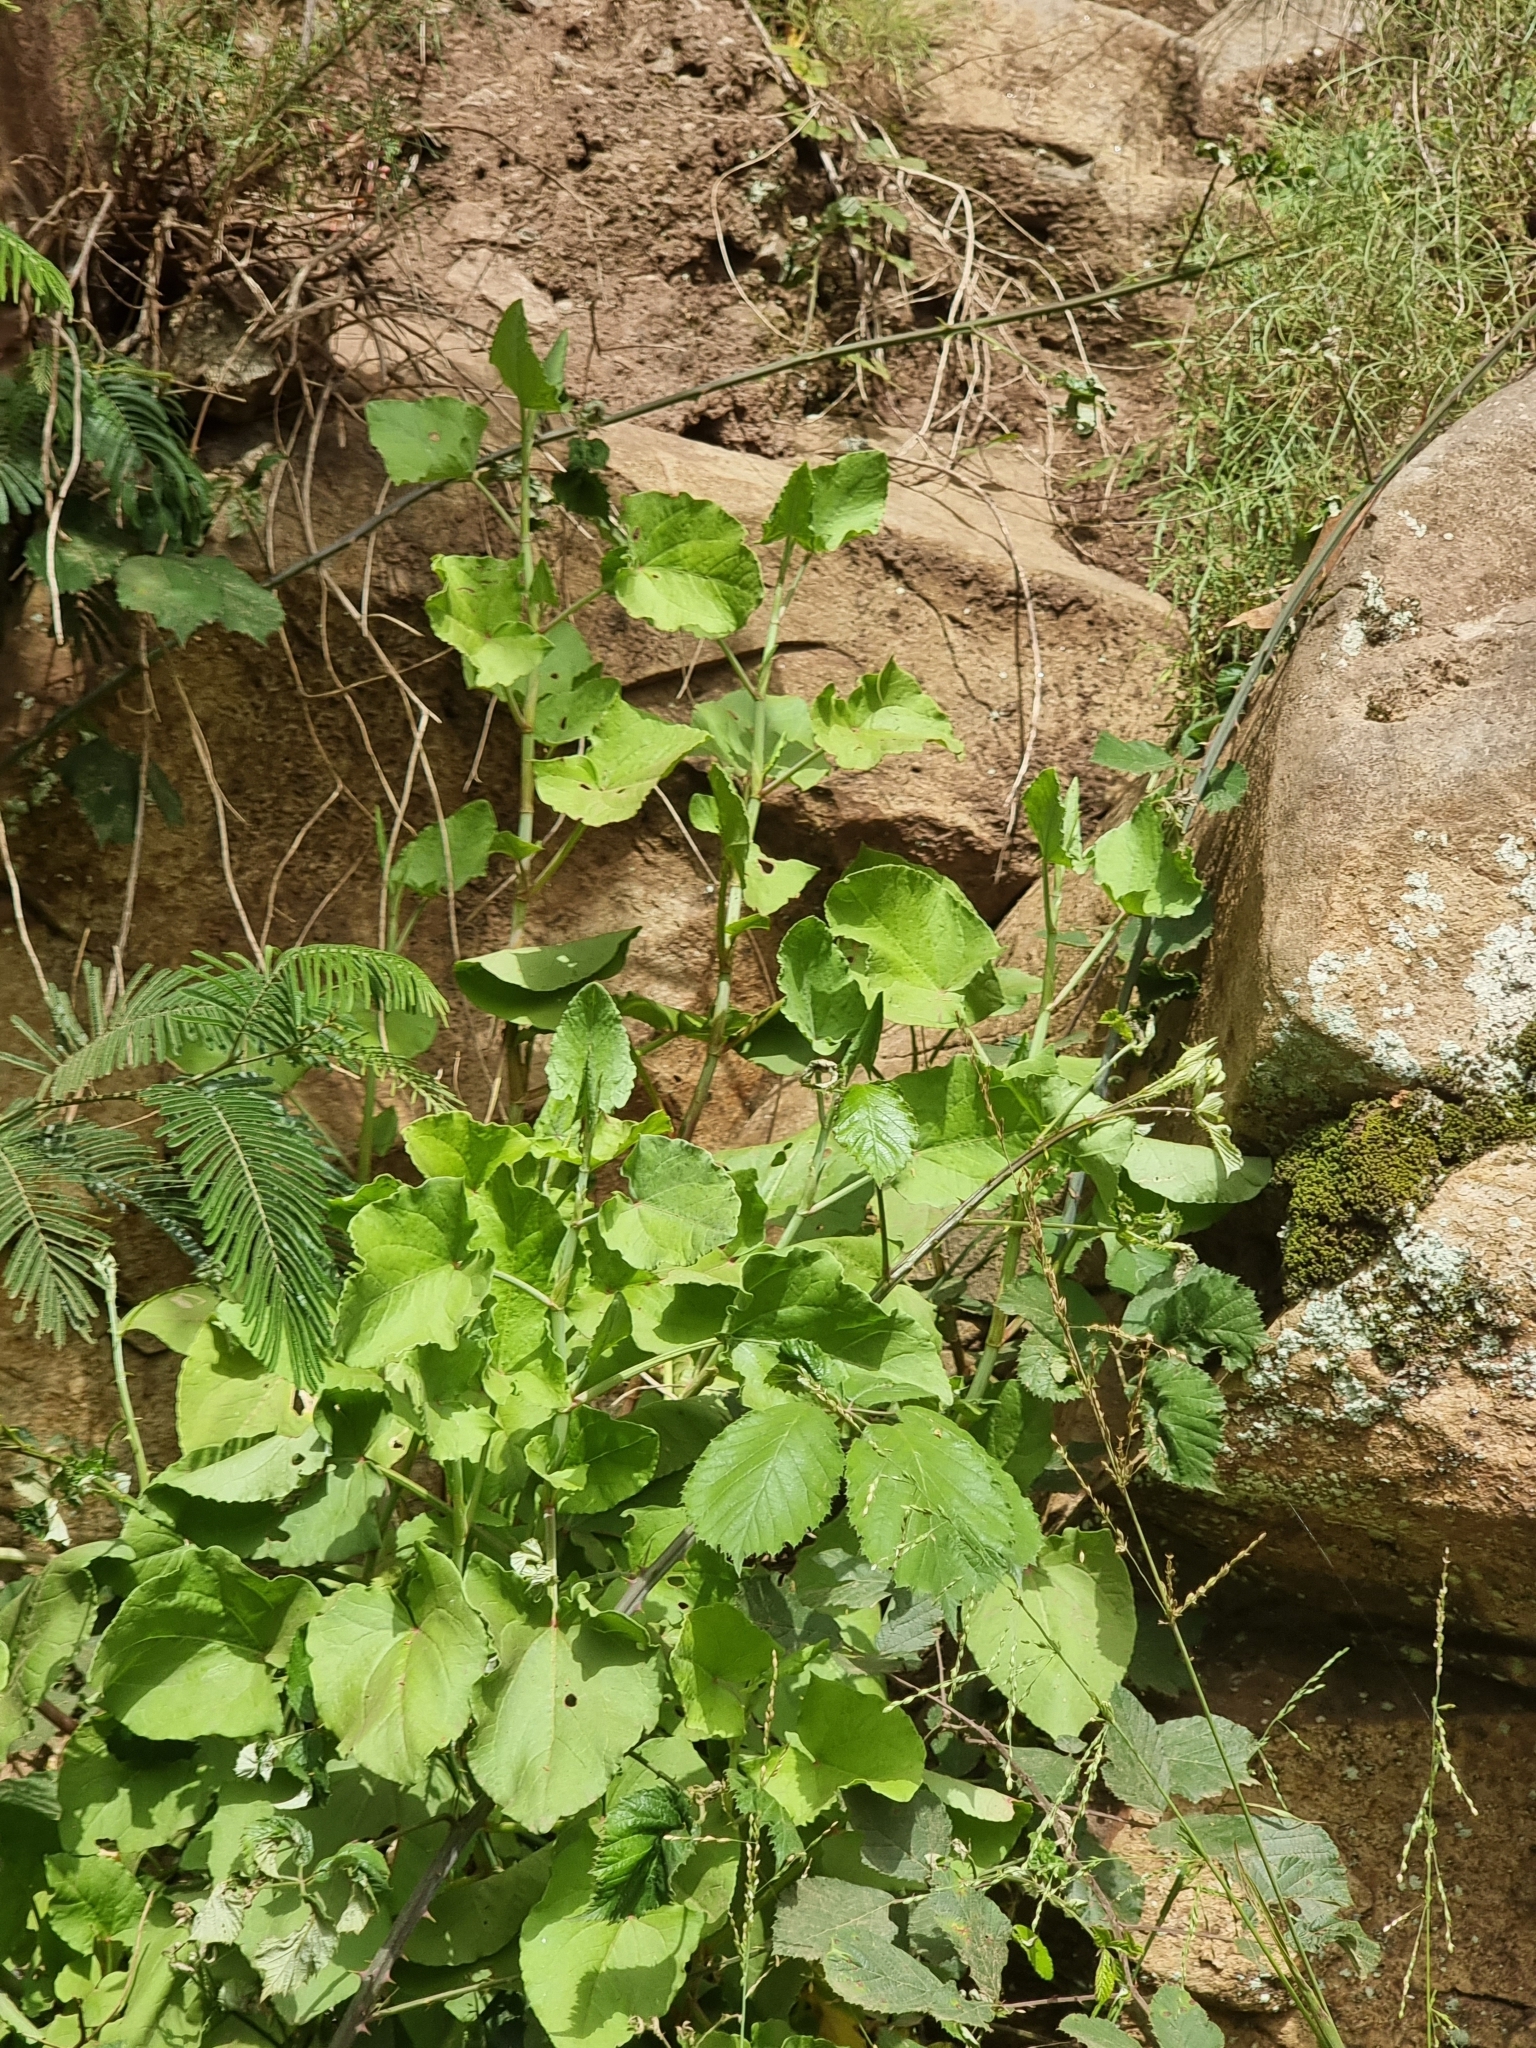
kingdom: Plantae
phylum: Tracheophyta
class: Magnoliopsida
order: Caryophyllales
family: Polygonaceae
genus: Rumex
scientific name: Rumex maderensis
